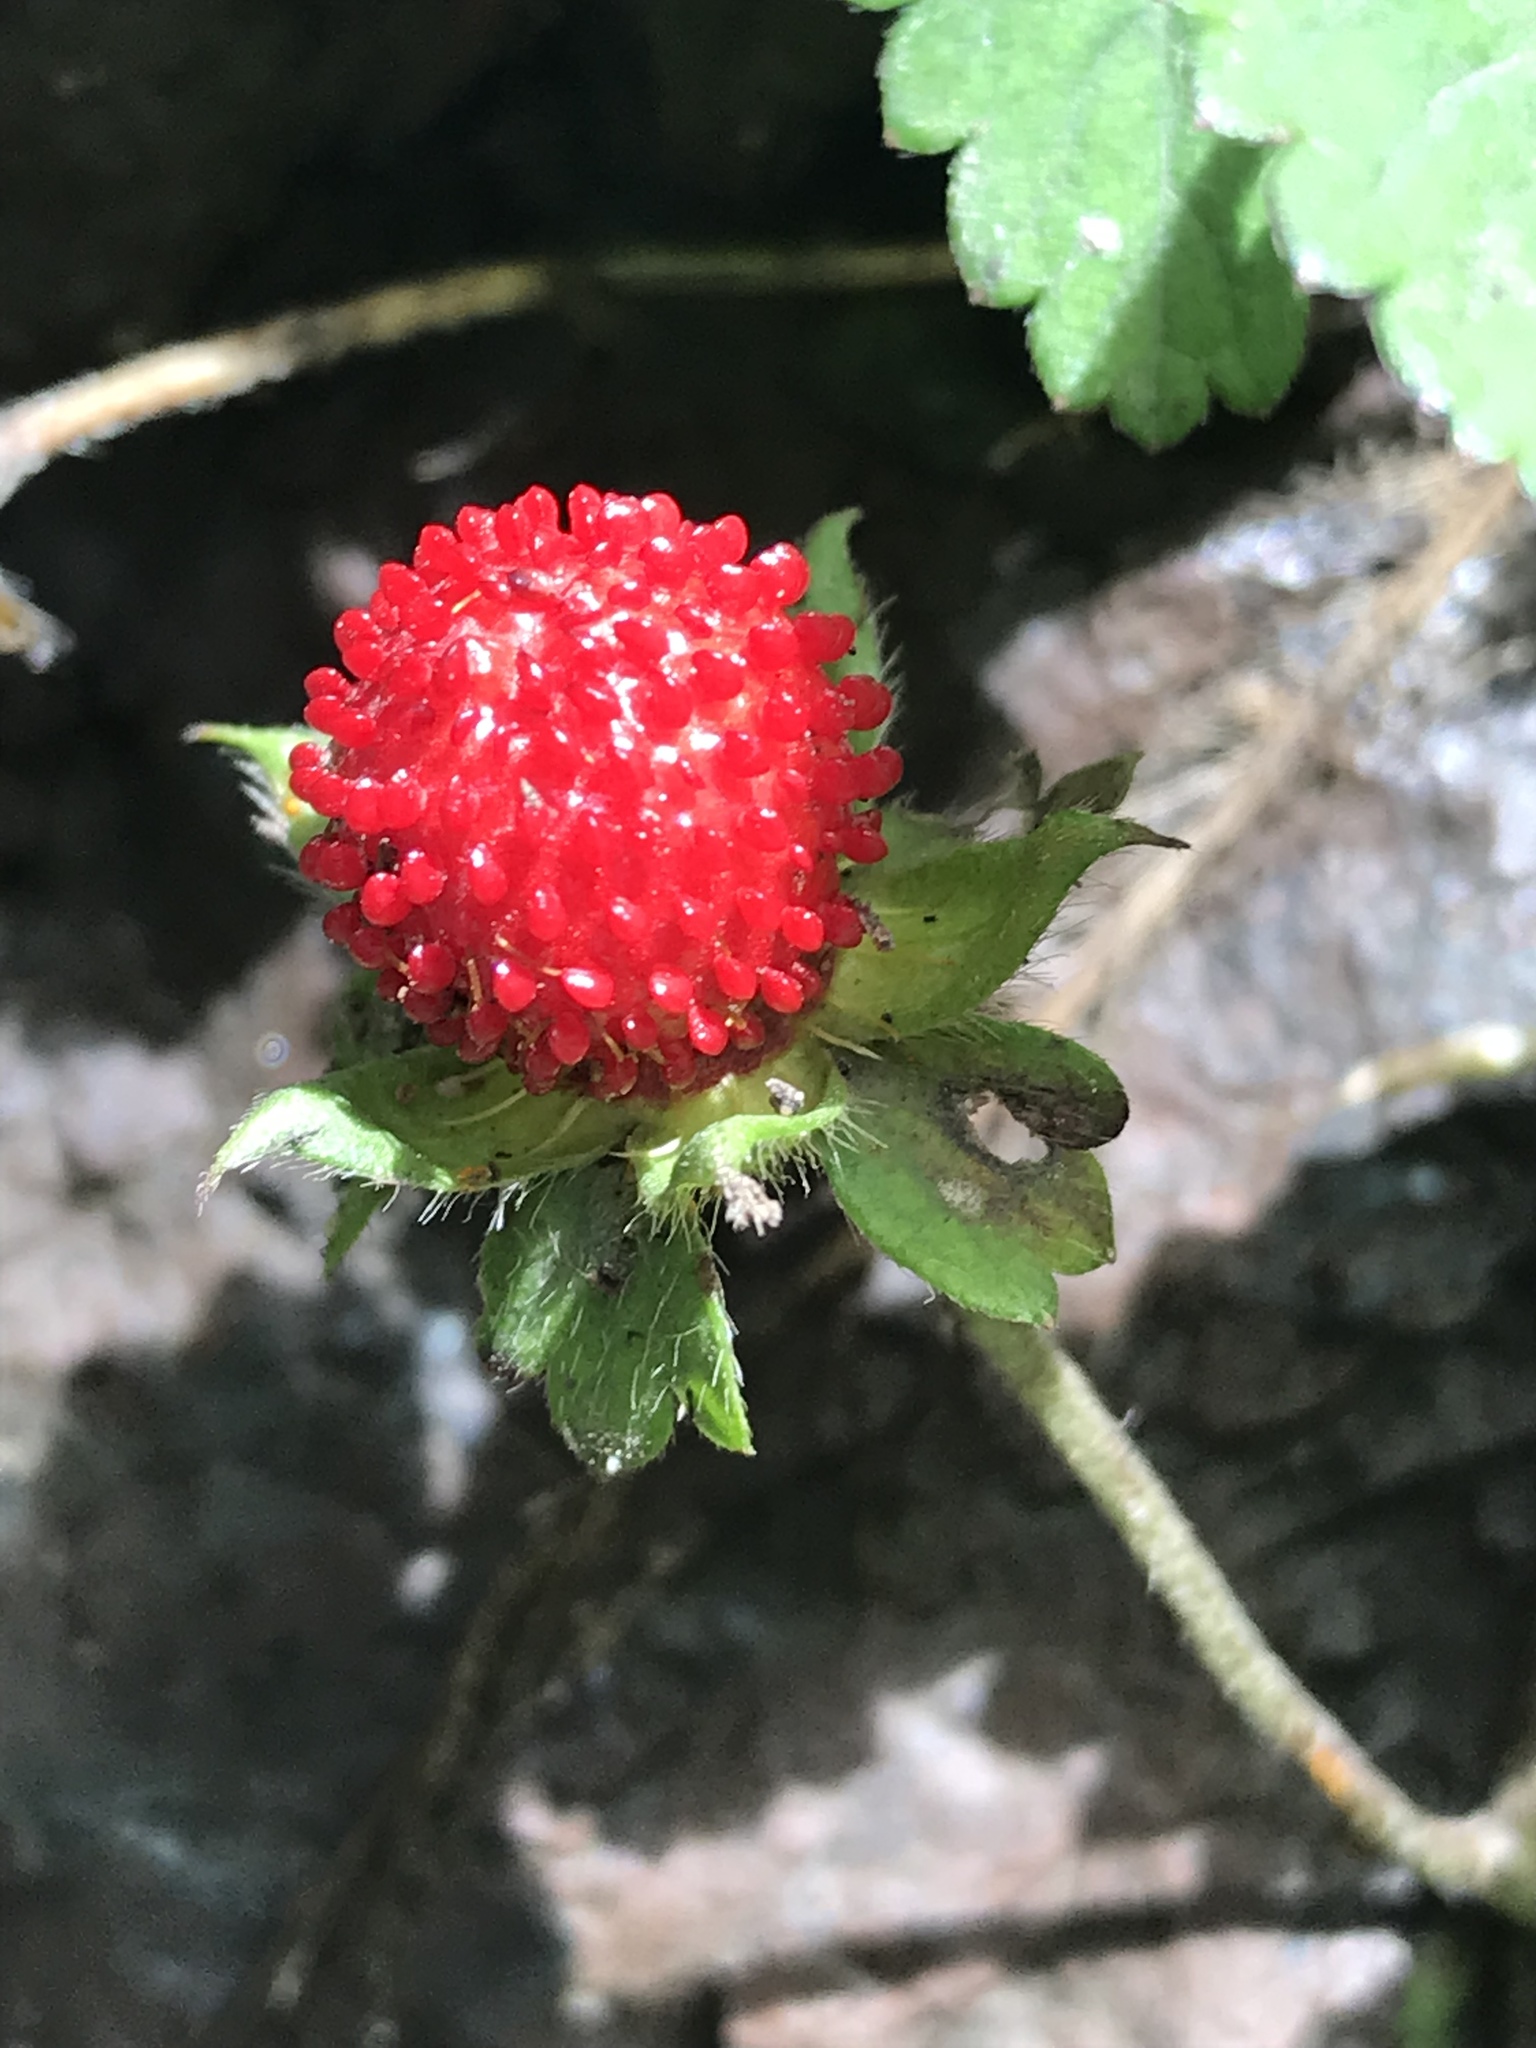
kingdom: Plantae
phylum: Tracheophyta
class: Magnoliopsida
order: Rosales
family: Rosaceae
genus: Potentilla
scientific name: Potentilla indica
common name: Yellow-flowered strawberry
